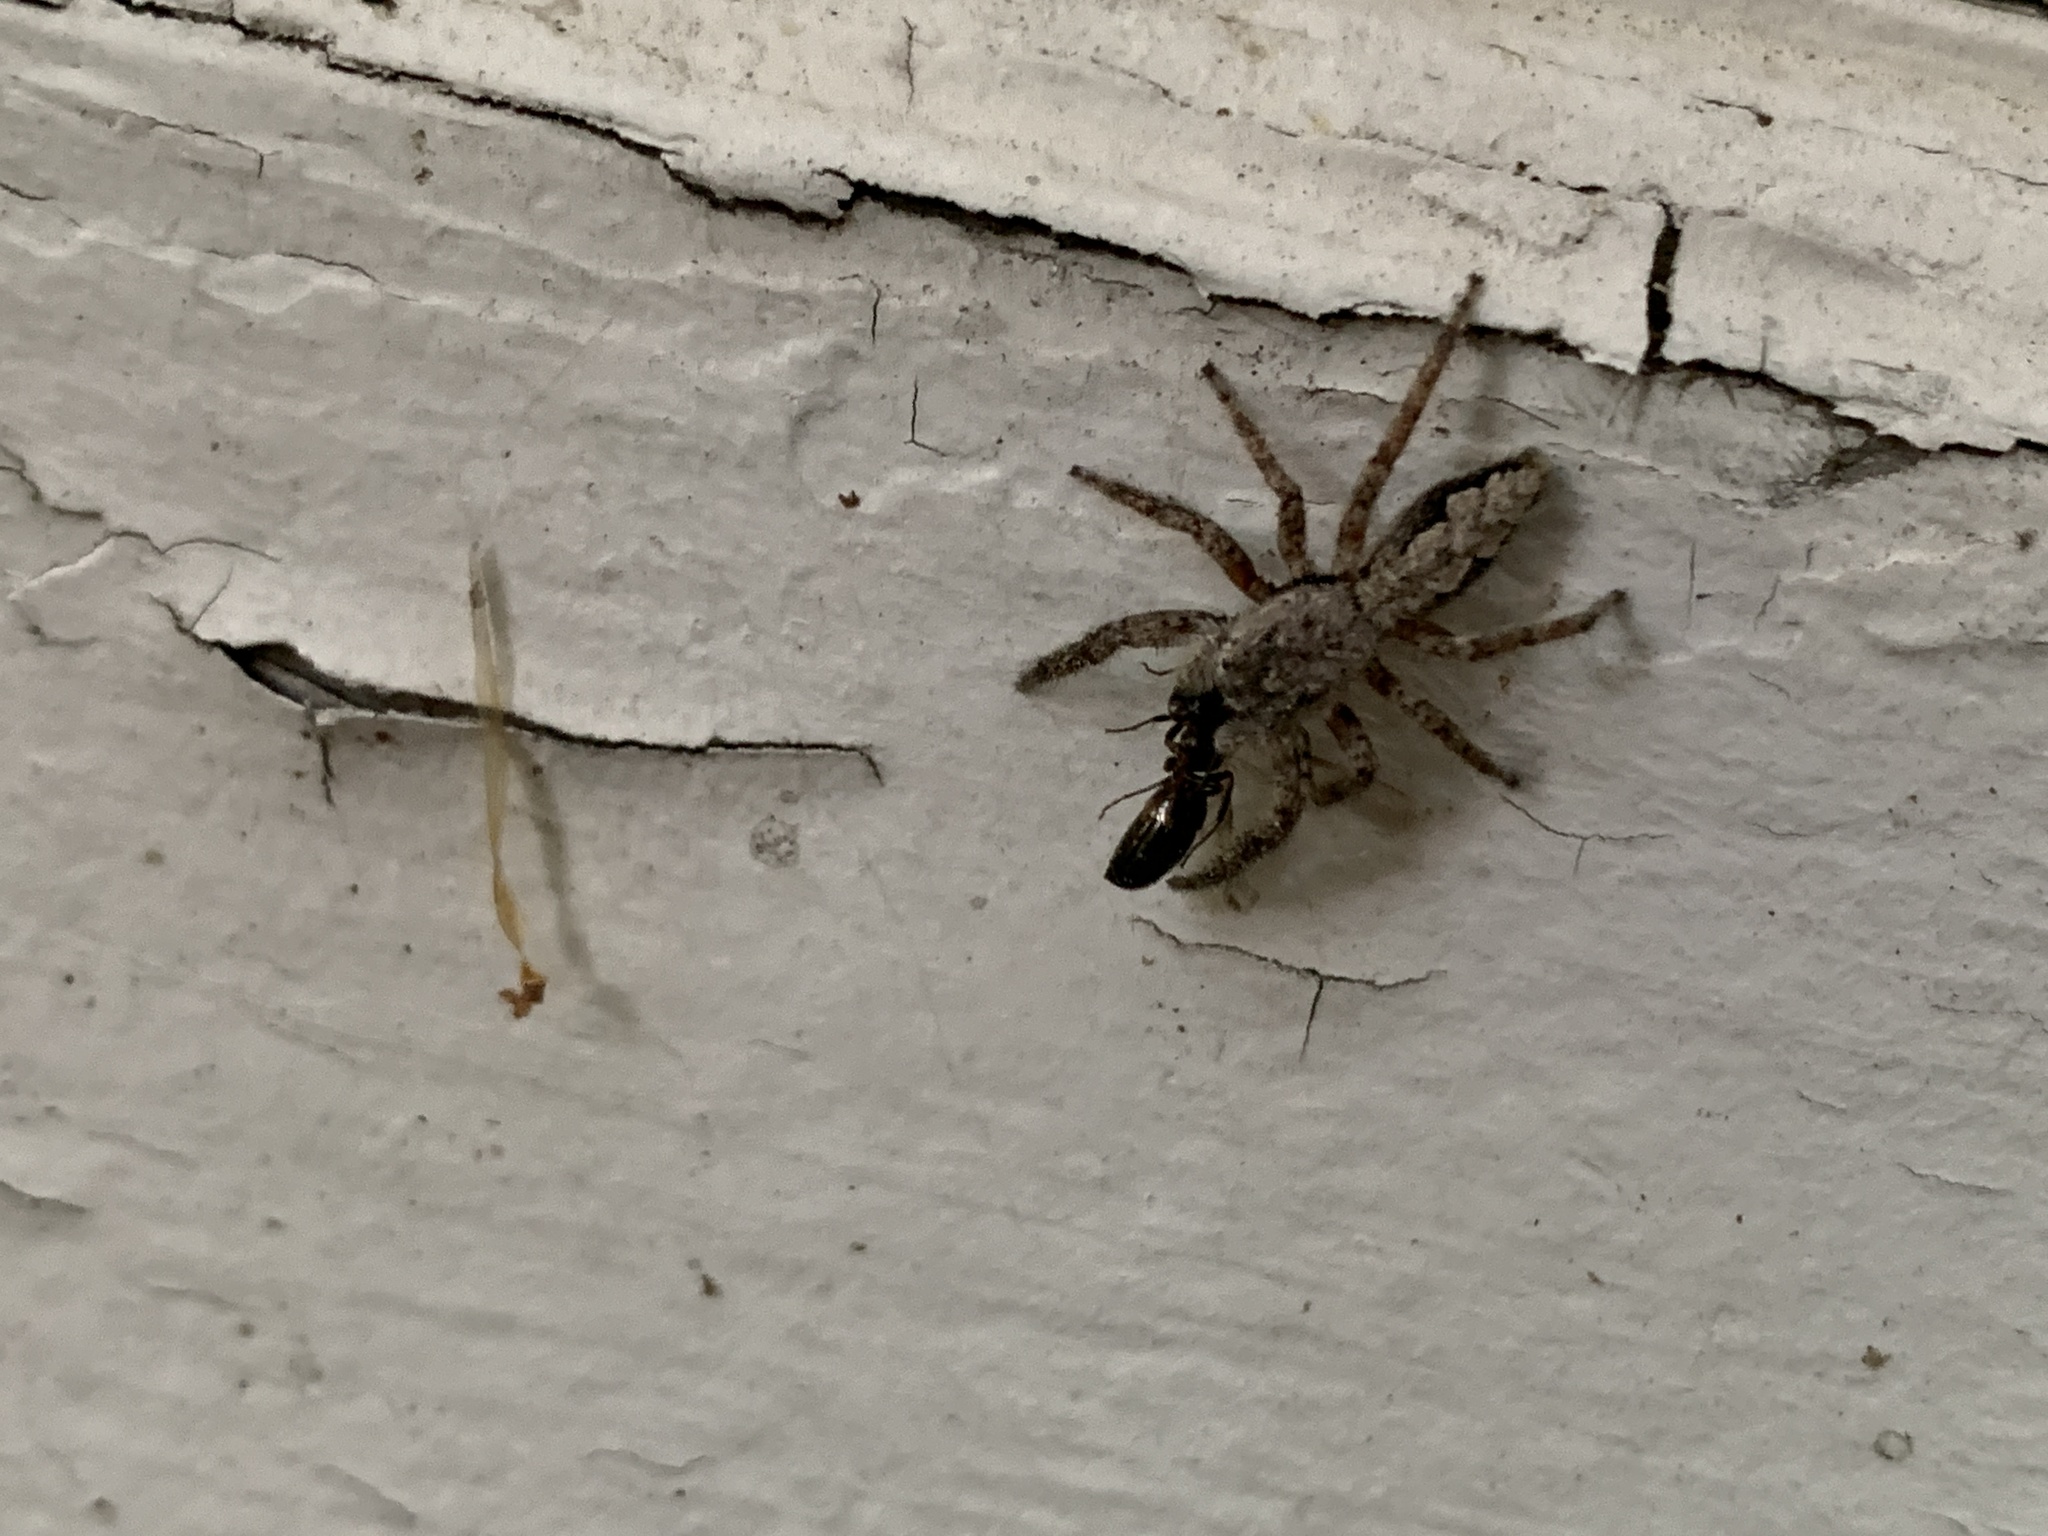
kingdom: Animalia
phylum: Arthropoda
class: Arachnida
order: Araneae
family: Salticidae
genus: Platycryptus
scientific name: Platycryptus undatus
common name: Tan jumping spider
